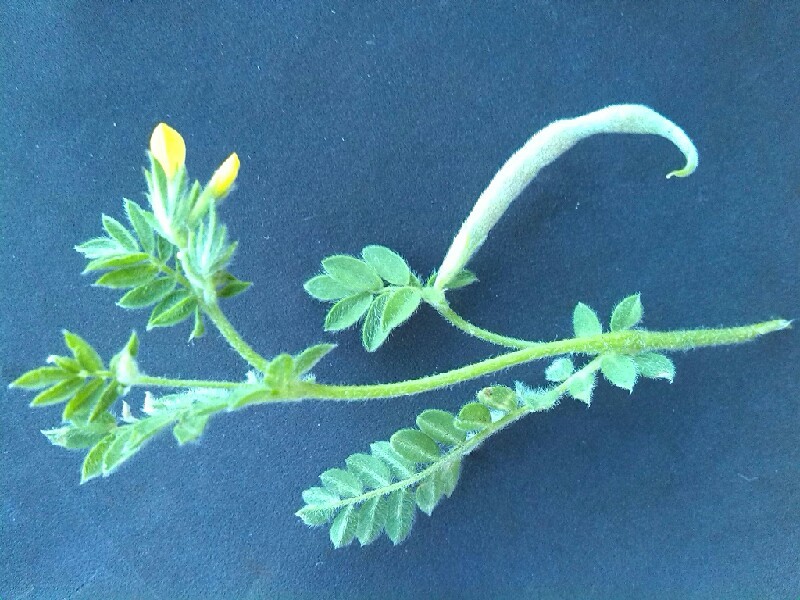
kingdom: Plantae
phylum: Tracheophyta
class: Magnoliopsida
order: Fabales
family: Fabaceae
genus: Ornithopus
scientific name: Ornithopus compressus
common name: Yellow serradella
